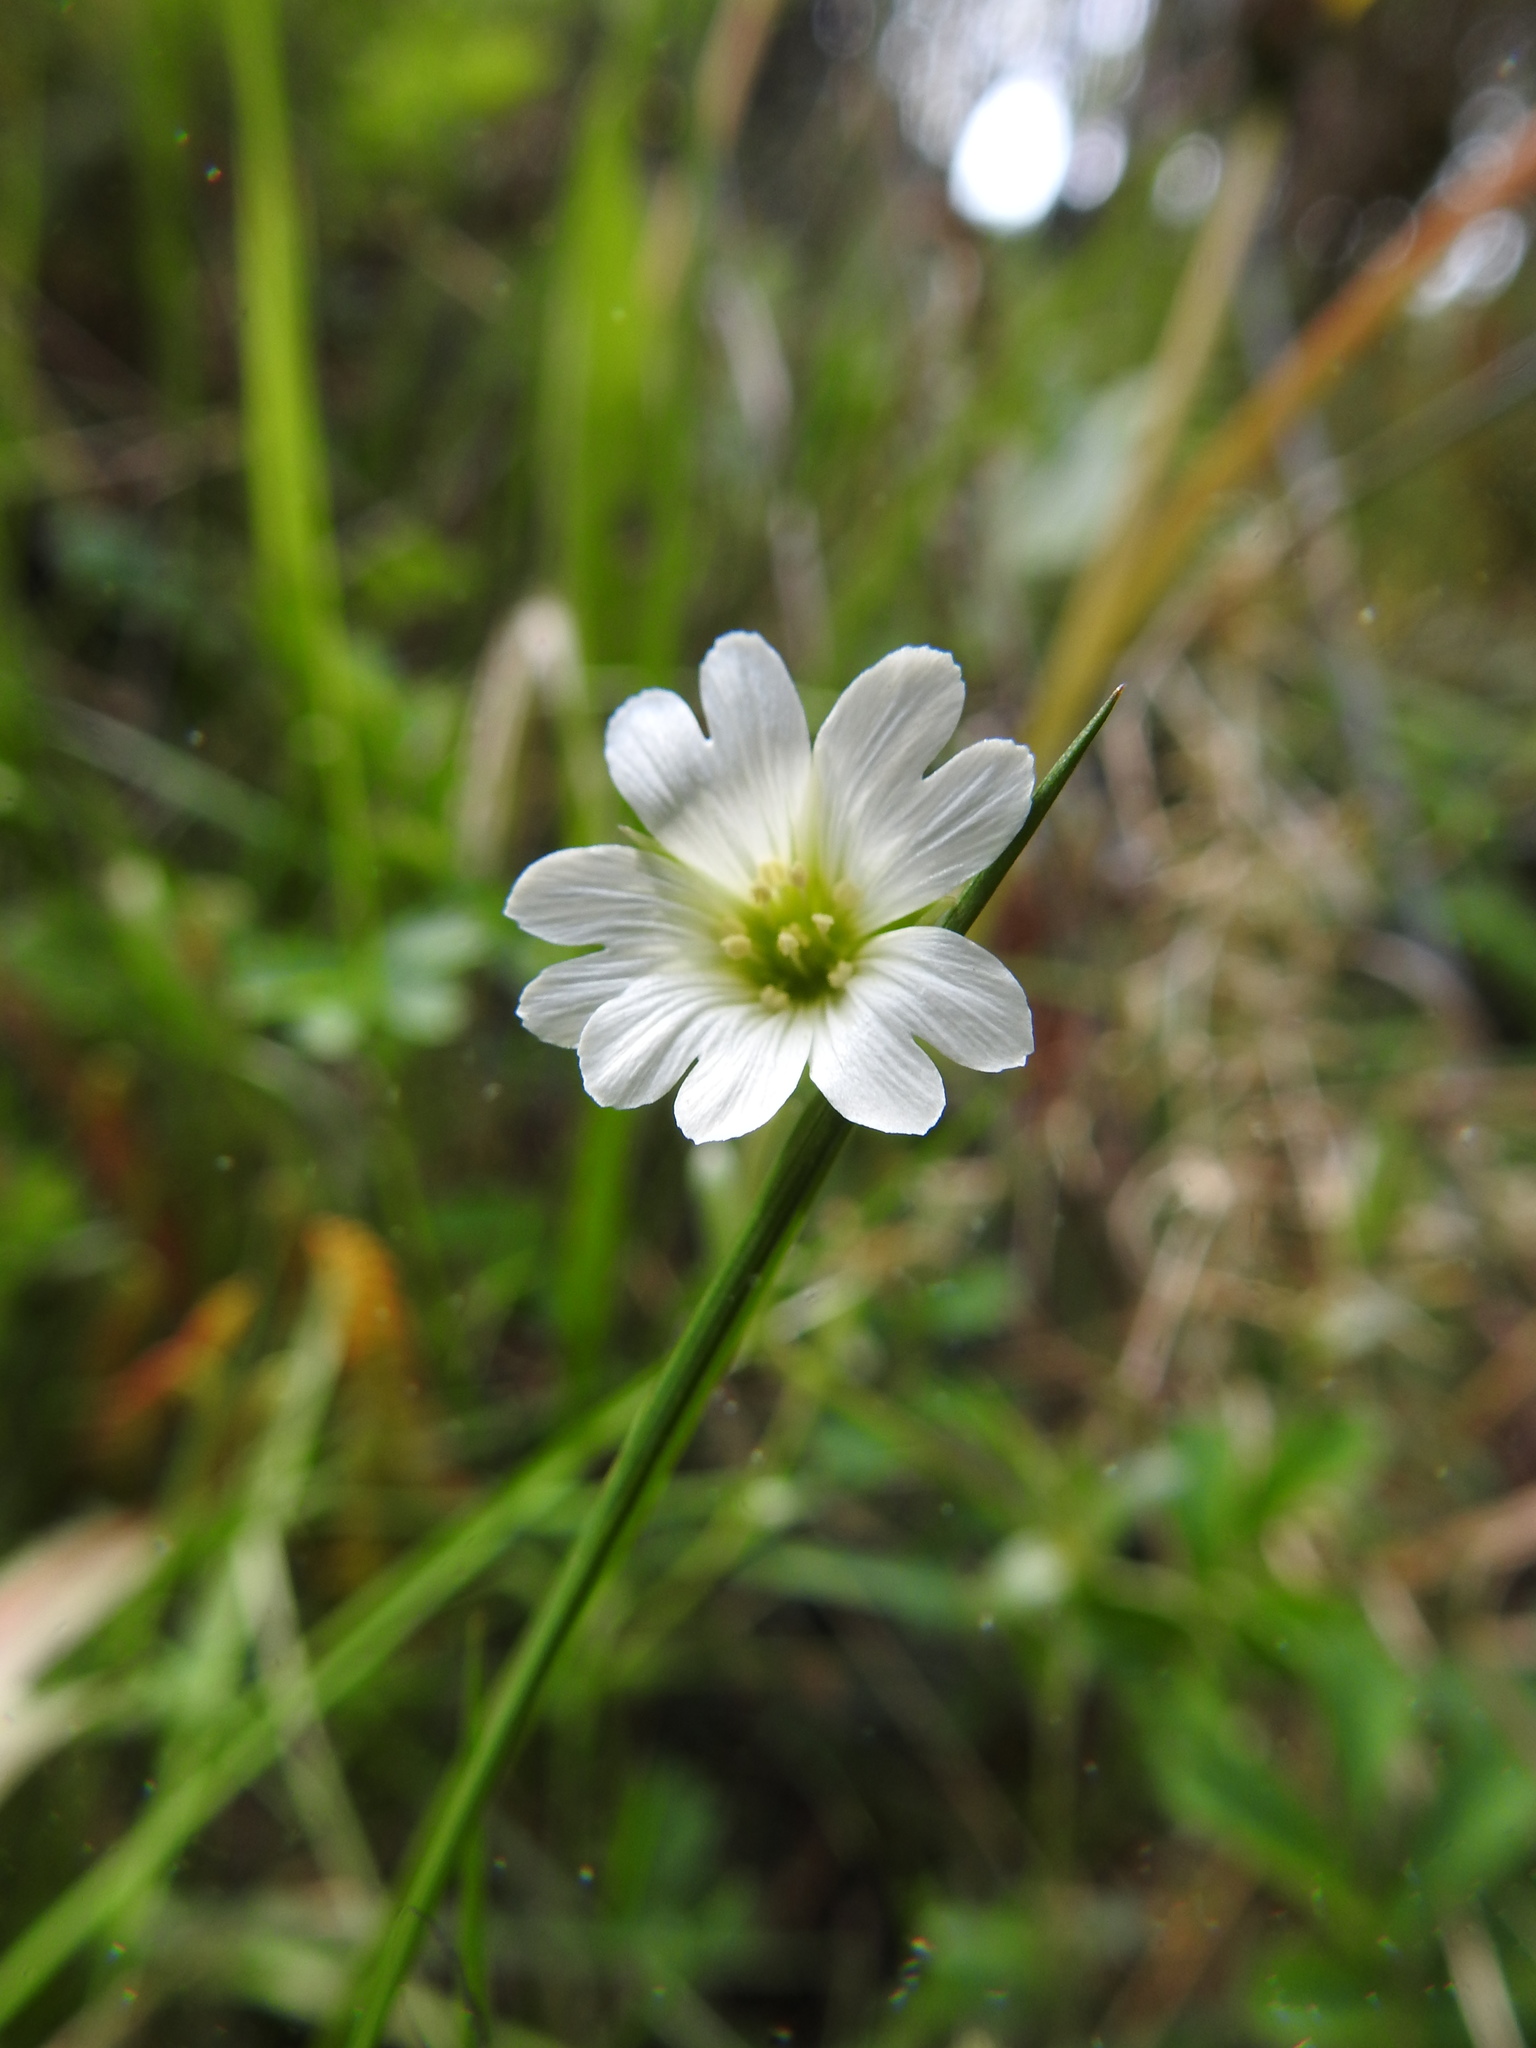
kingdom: Plantae
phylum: Tracheophyta
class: Magnoliopsida
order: Caryophyllales
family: Caryophyllaceae
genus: Cerastium
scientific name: Cerastium arvense
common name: Field mouse-ear
